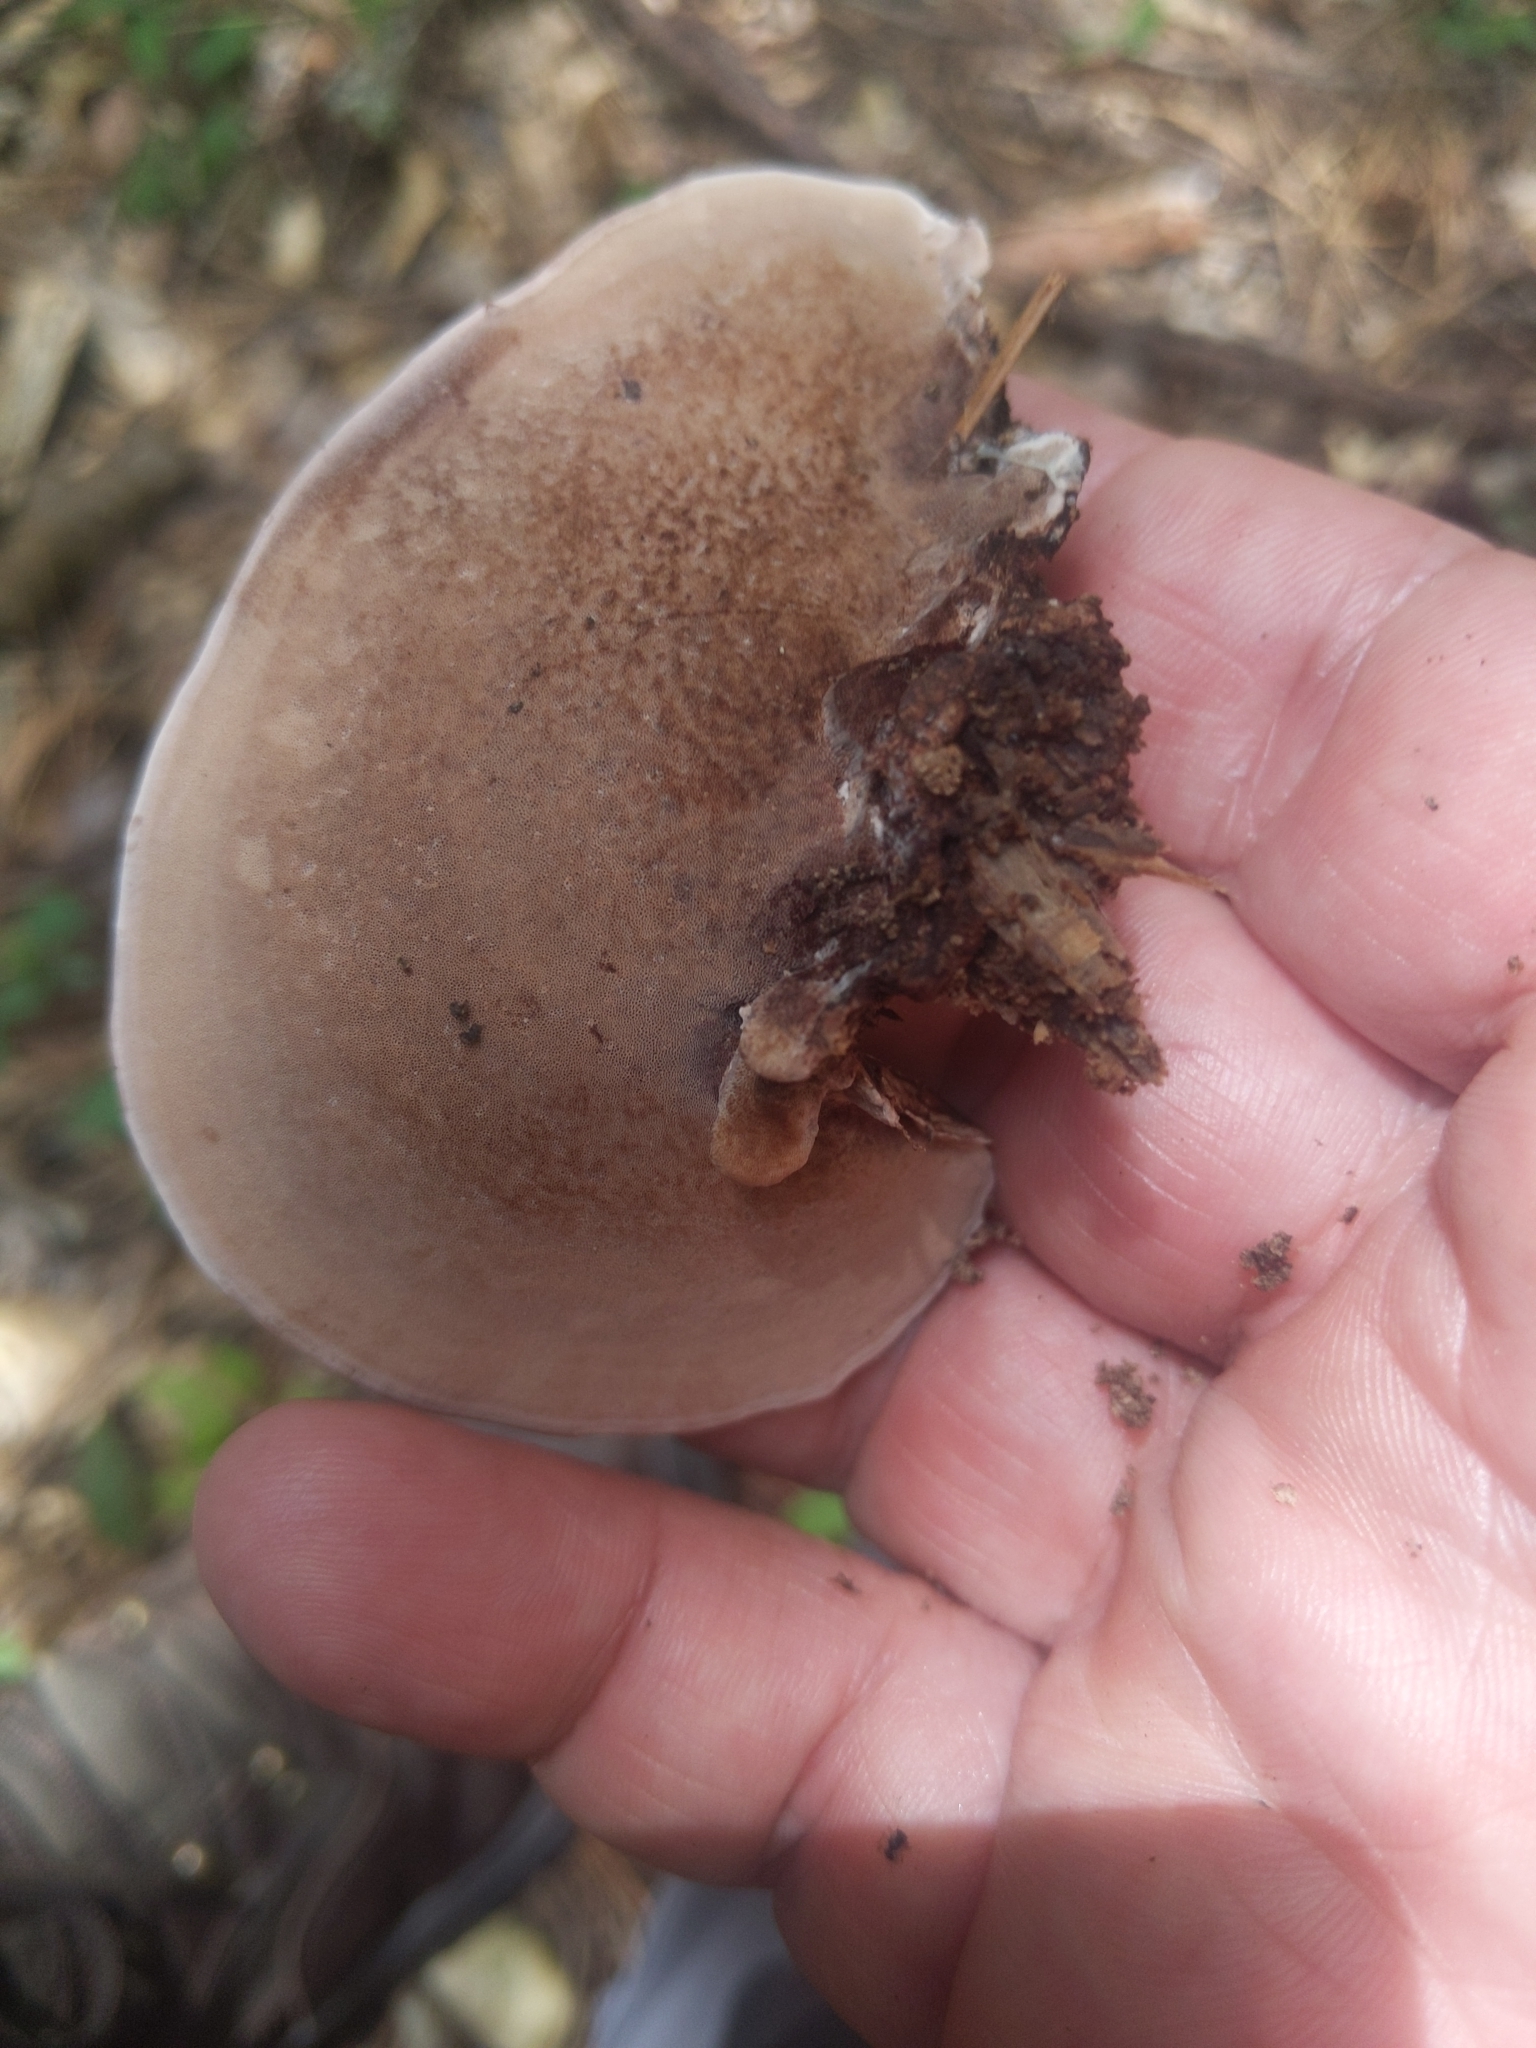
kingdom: Fungi
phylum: Basidiomycota
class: Agaricomycetes
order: Polyporales
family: Steccherinaceae
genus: Nigroporus
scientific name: Nigroporus vinosus
